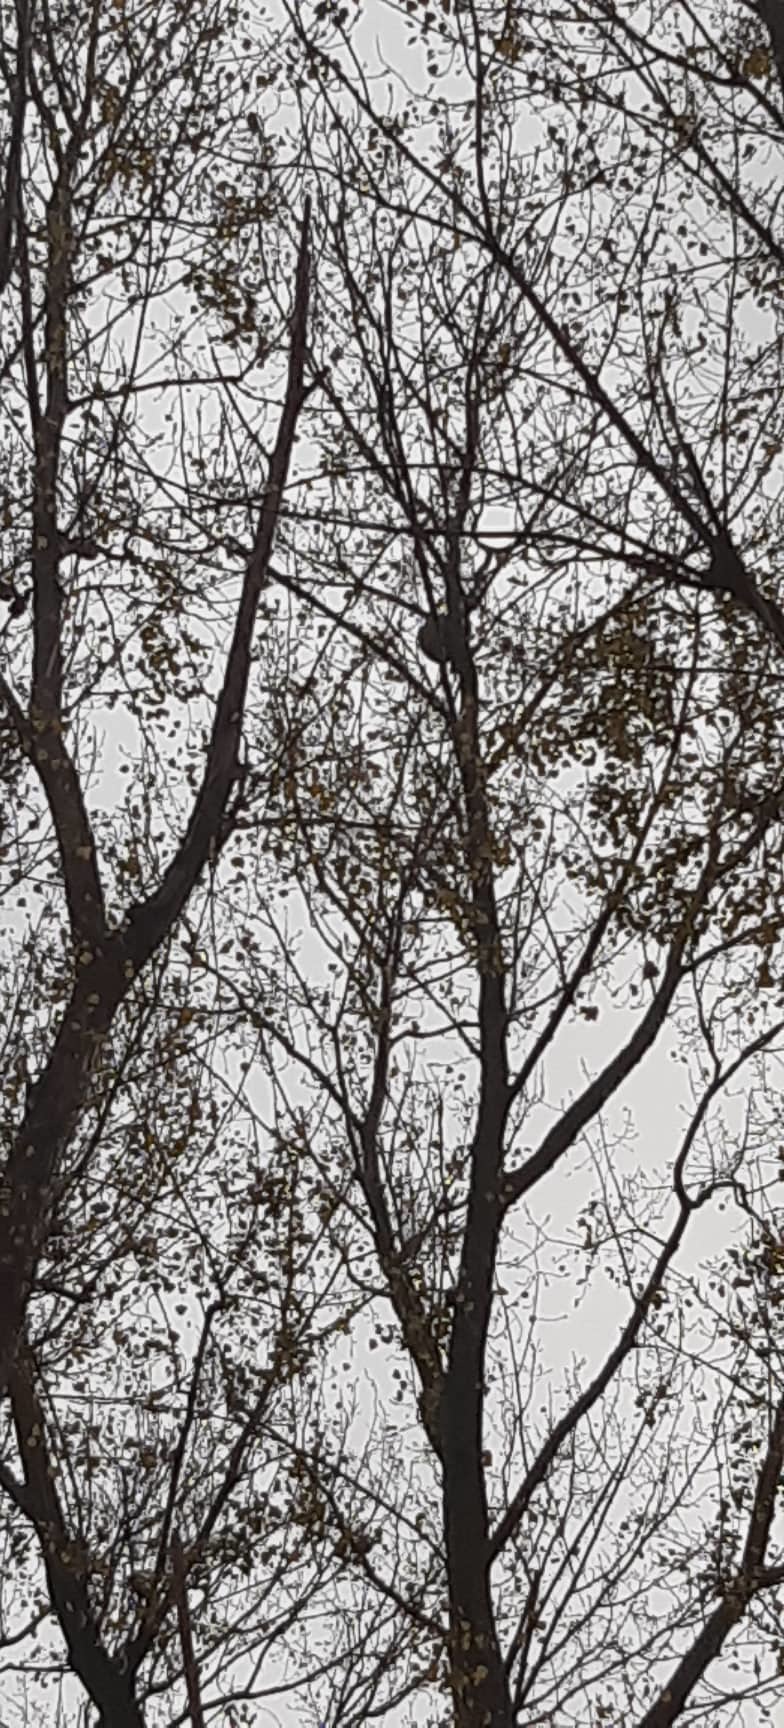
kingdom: Animalia
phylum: Arthropoda
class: Insecta
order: Hymenoptera
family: Vespidae
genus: Vespa
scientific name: Vespa velutina
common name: Asian hornet
